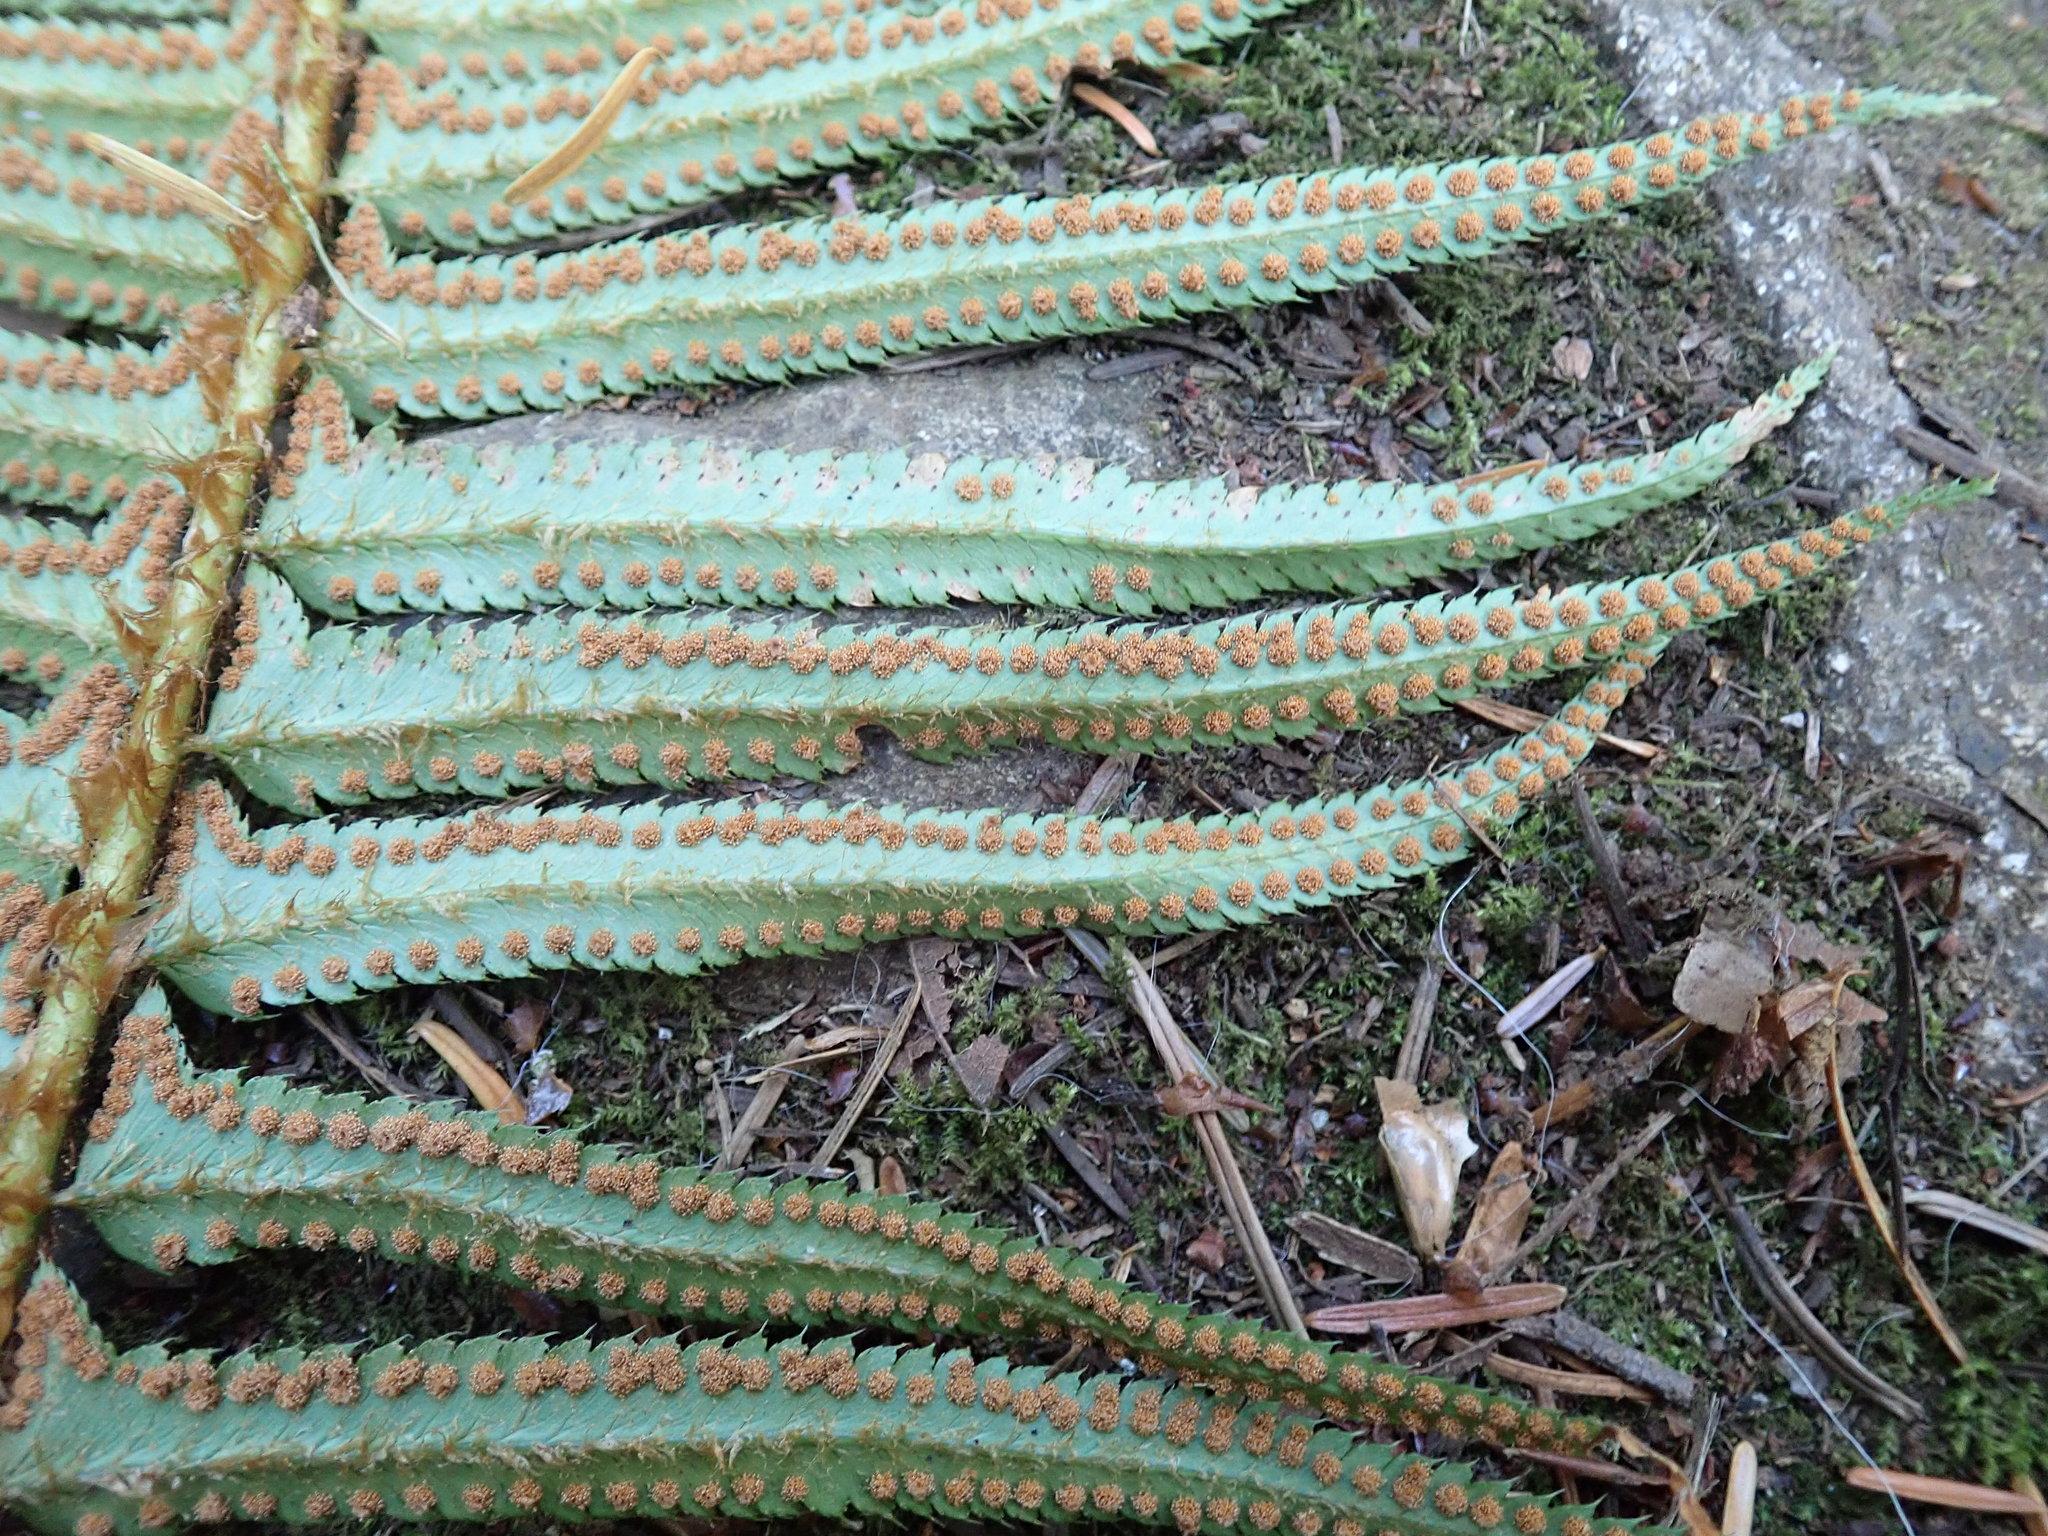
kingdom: Plantae
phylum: Tracheophyta
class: Polypodiopsida
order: Polypodiales
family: Dryopteridaceae
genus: Polystichum
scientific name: Polystichum munitum
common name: Western sword-fern
